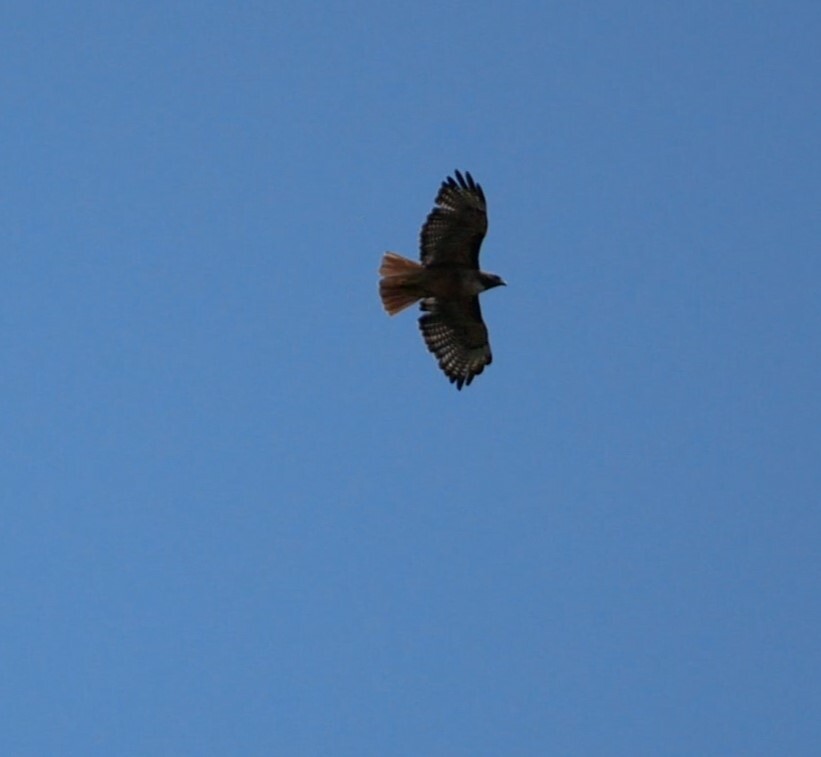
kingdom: Animalia
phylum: Chordata
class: Aves
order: Accipitriformes
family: Accipitridae
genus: Buteo
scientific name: Buteo jamaicensis
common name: Red-tailed hawk
